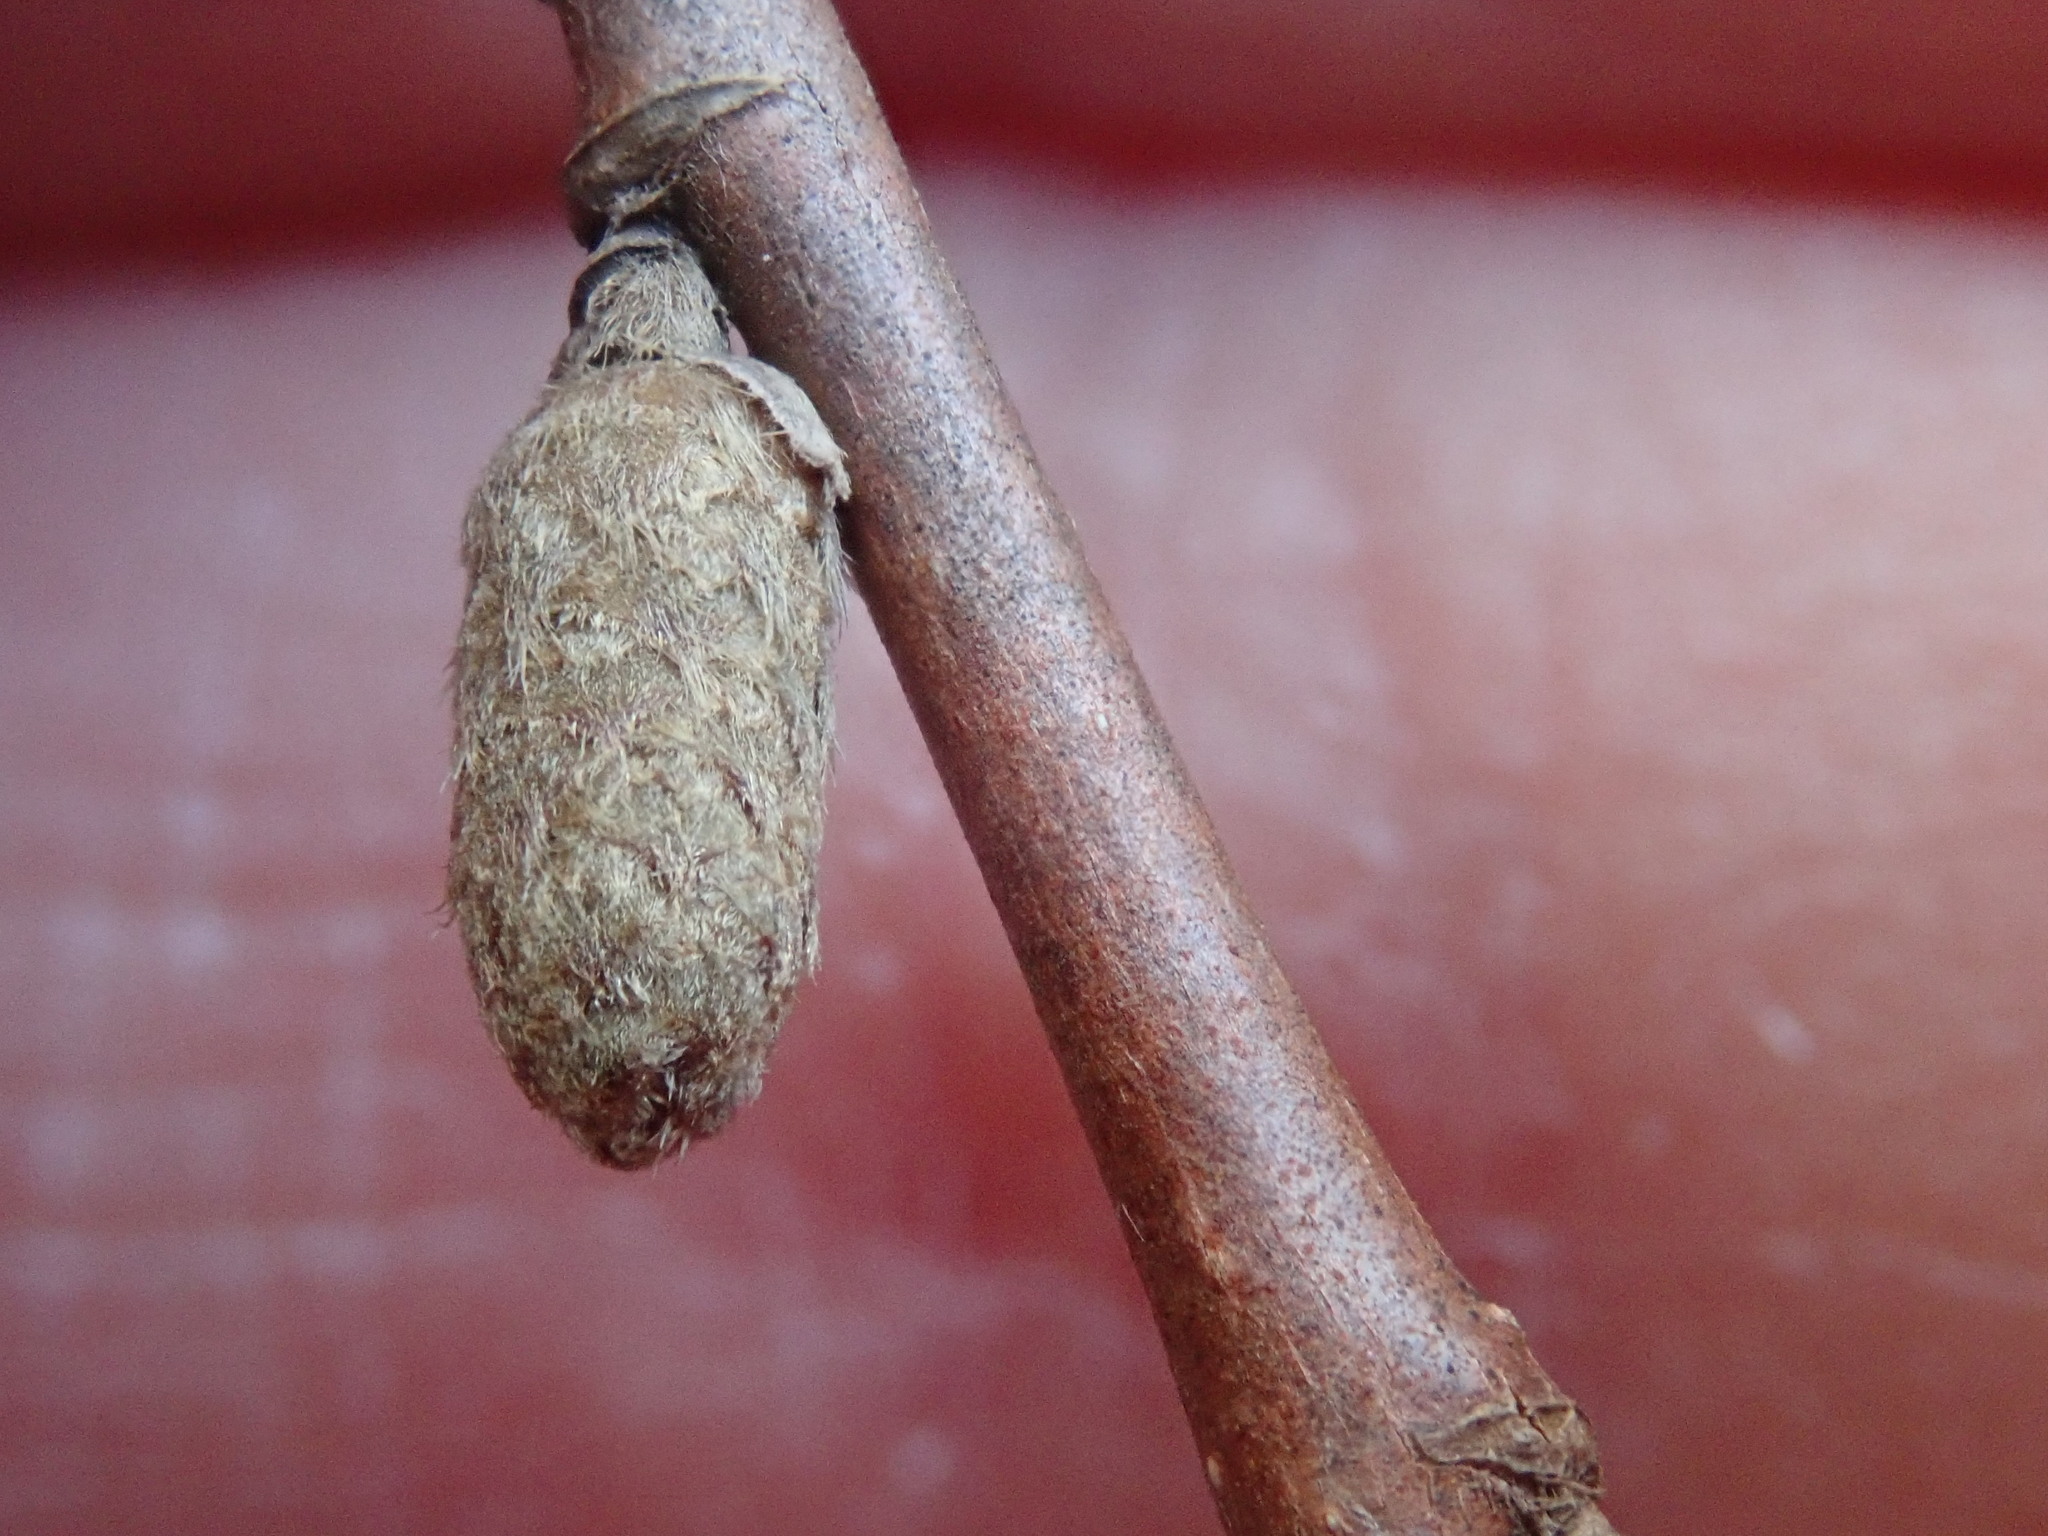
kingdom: Plantae
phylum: Tracheophyta
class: Magnoliopsida
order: Fagales
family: Betulaceae
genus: Corylus
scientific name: Corylus cornuta
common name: Beaked hazel
